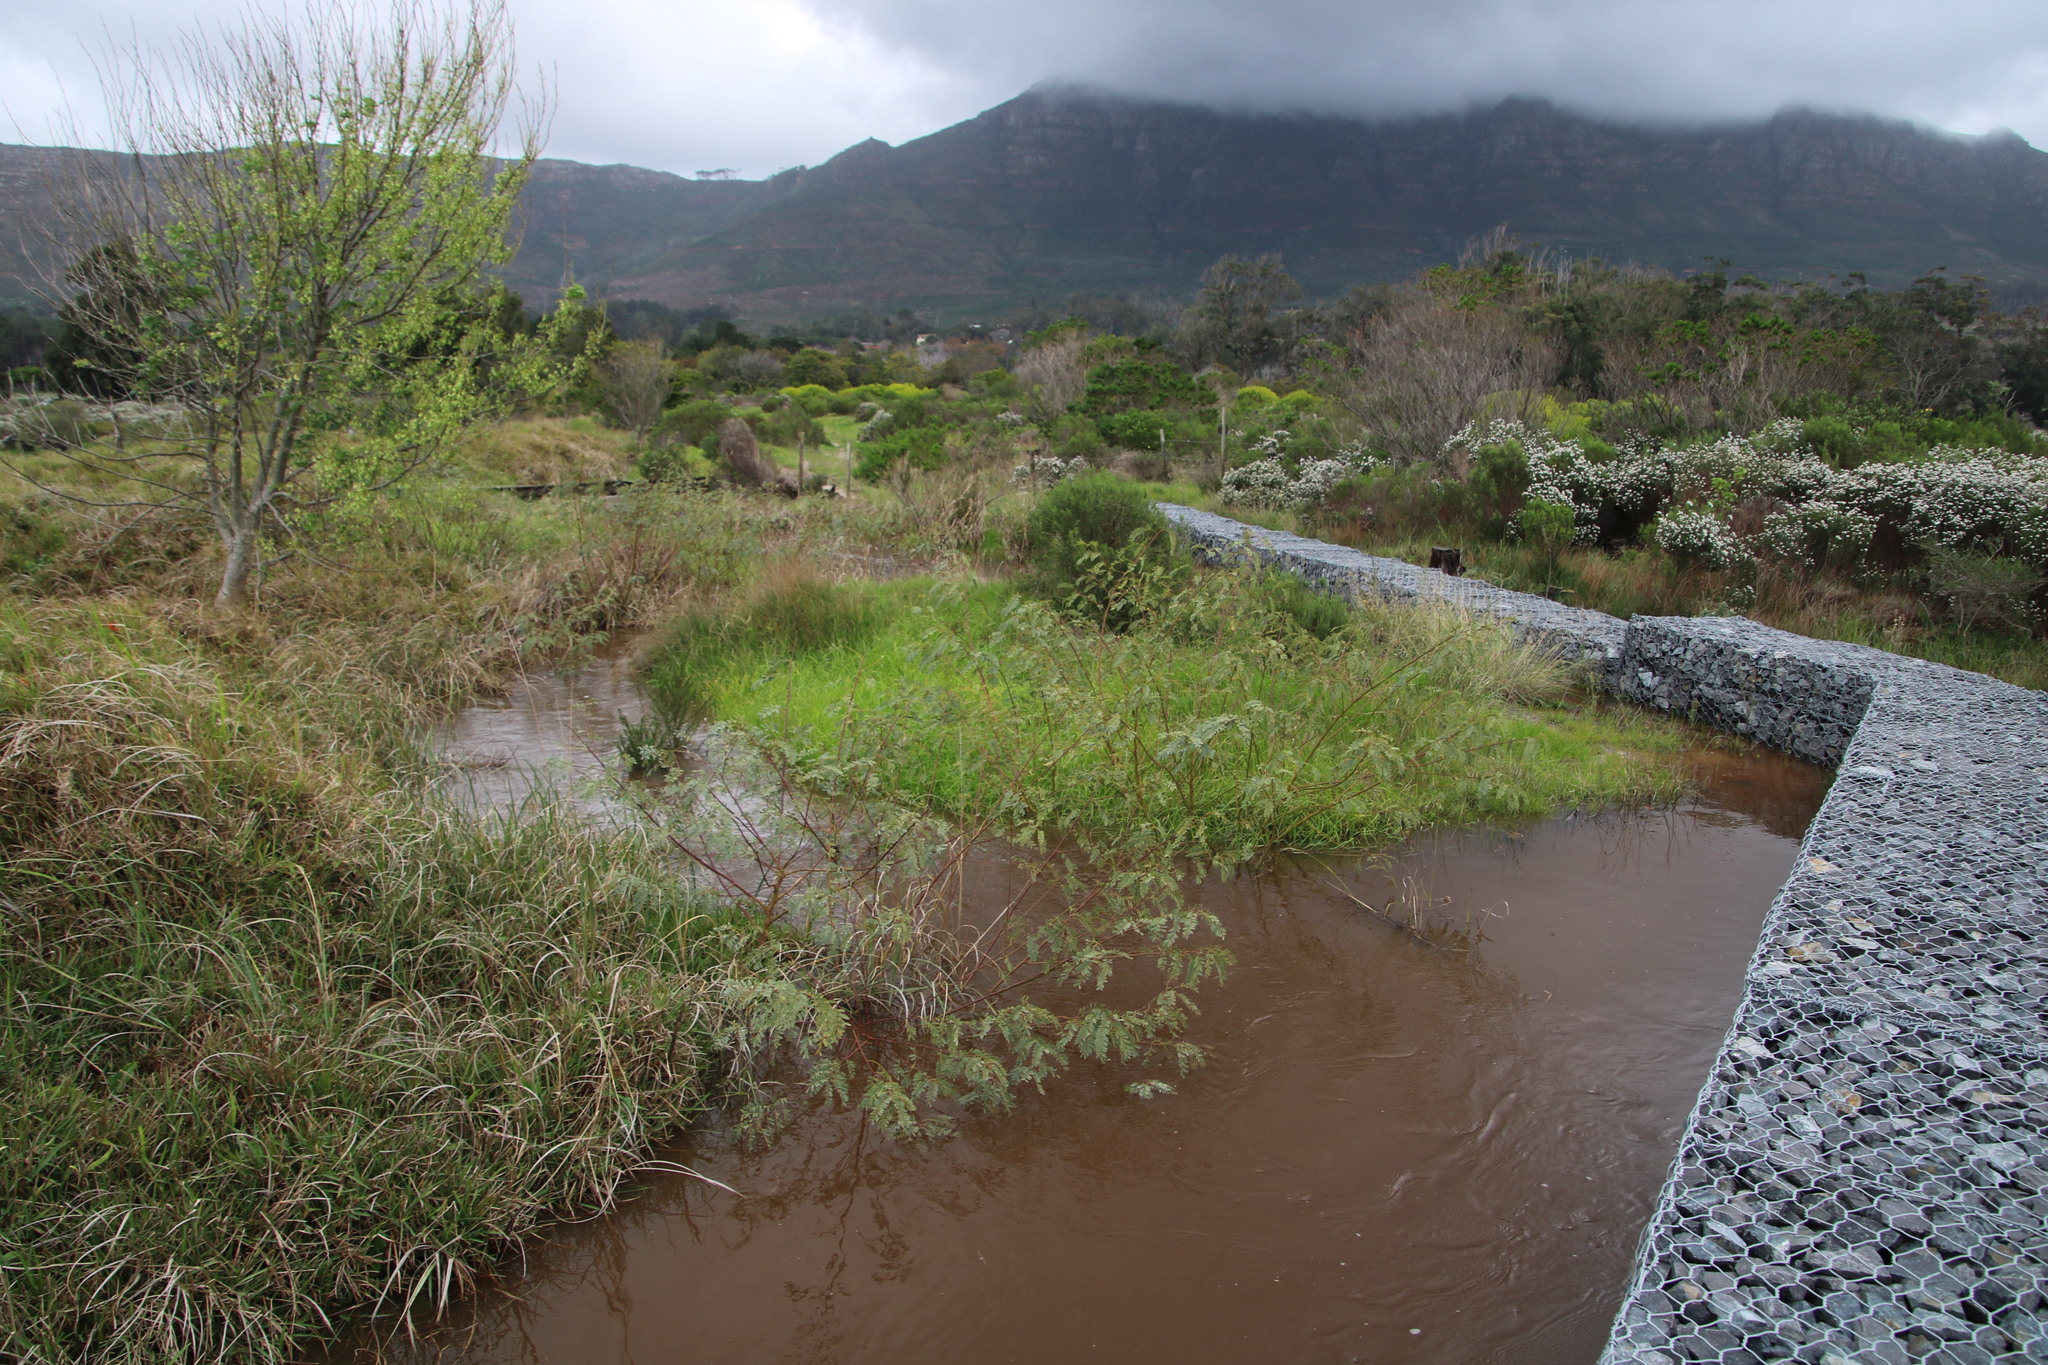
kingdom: Plantae
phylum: Tracheophyta
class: Magnoliopsida
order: Lamiales
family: Oleaceae
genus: Fraxinus
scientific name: Fraxinus americana
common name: White ash
